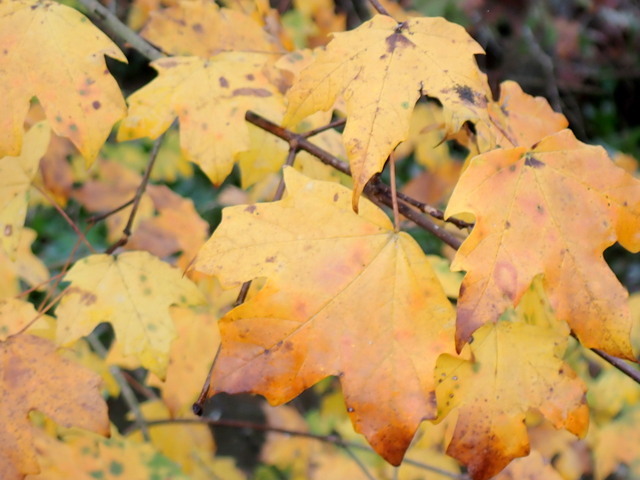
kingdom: Plantae
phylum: Tracheophyta
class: Magnoliopsida
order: Sapindales
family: Sapindaceae
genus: Acer
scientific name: Acer floridanum
